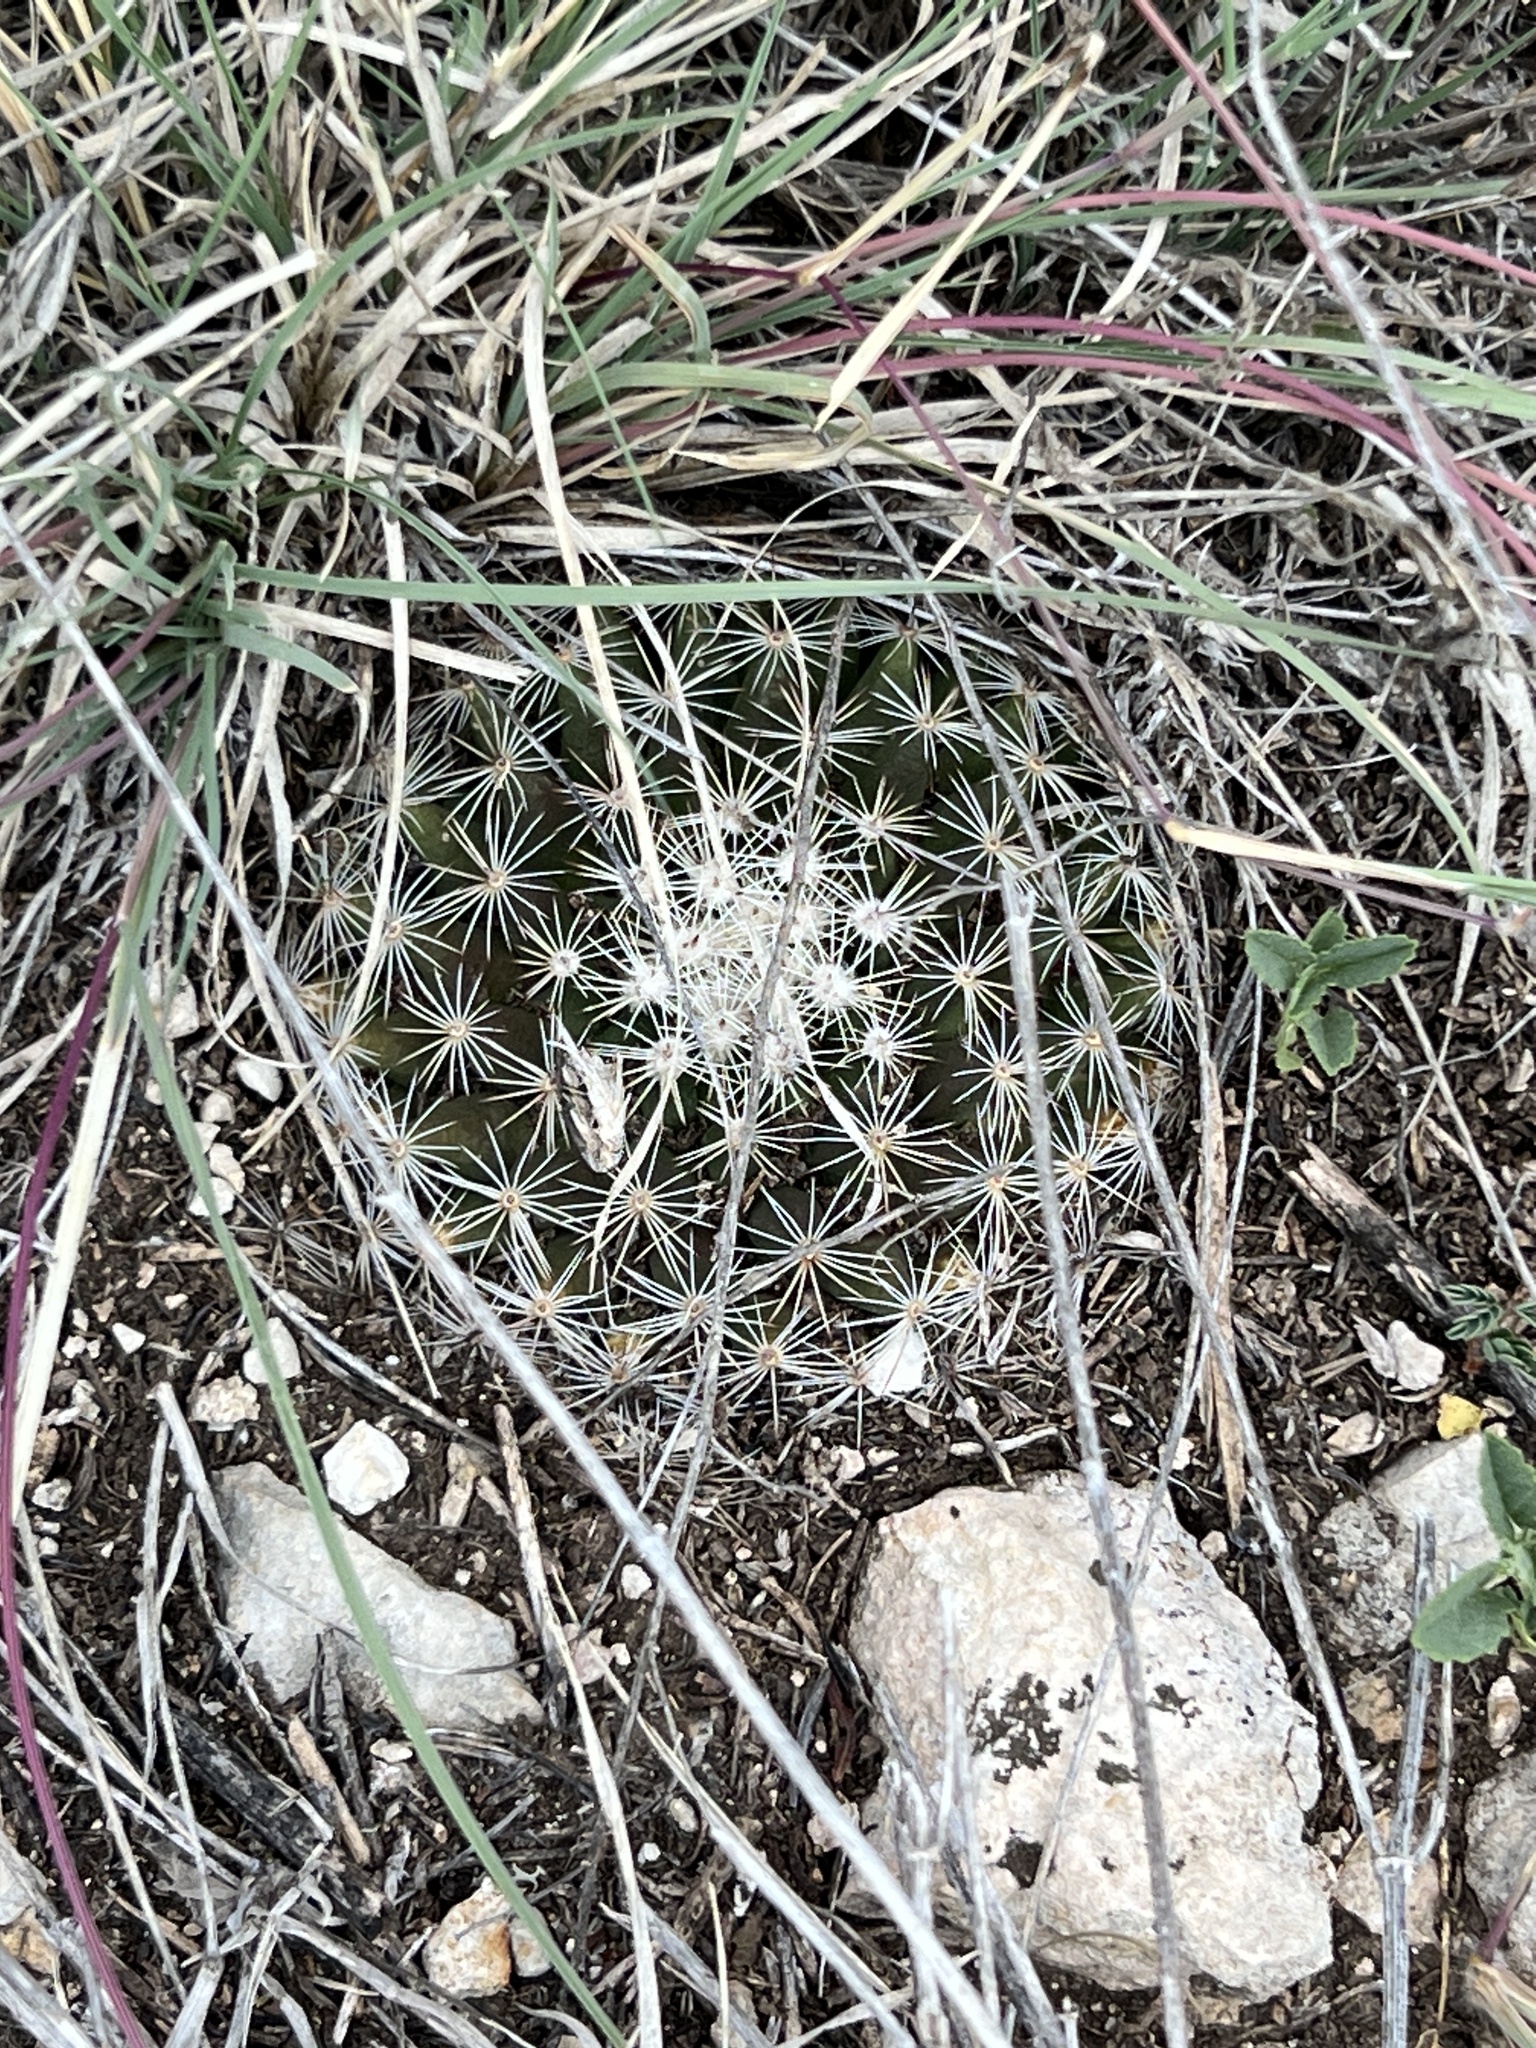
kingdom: Plantae
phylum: Tracheophyta
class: Magnoliopsida
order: Caryophyllales
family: Cactaceae
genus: Mammillaria
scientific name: Mammillaria heyderi
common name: Little nipple cactus
